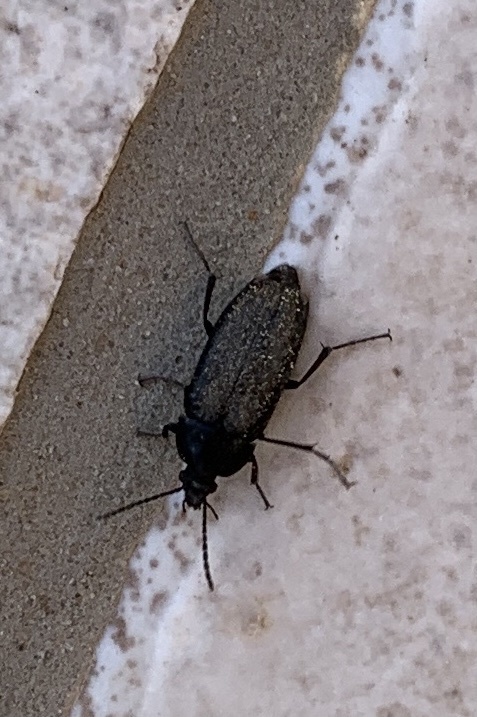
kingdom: Animalia
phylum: Arthropoda
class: Insecta
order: Coleoptera
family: Tenebrionidae
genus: Podonta
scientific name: Podonta aubei
